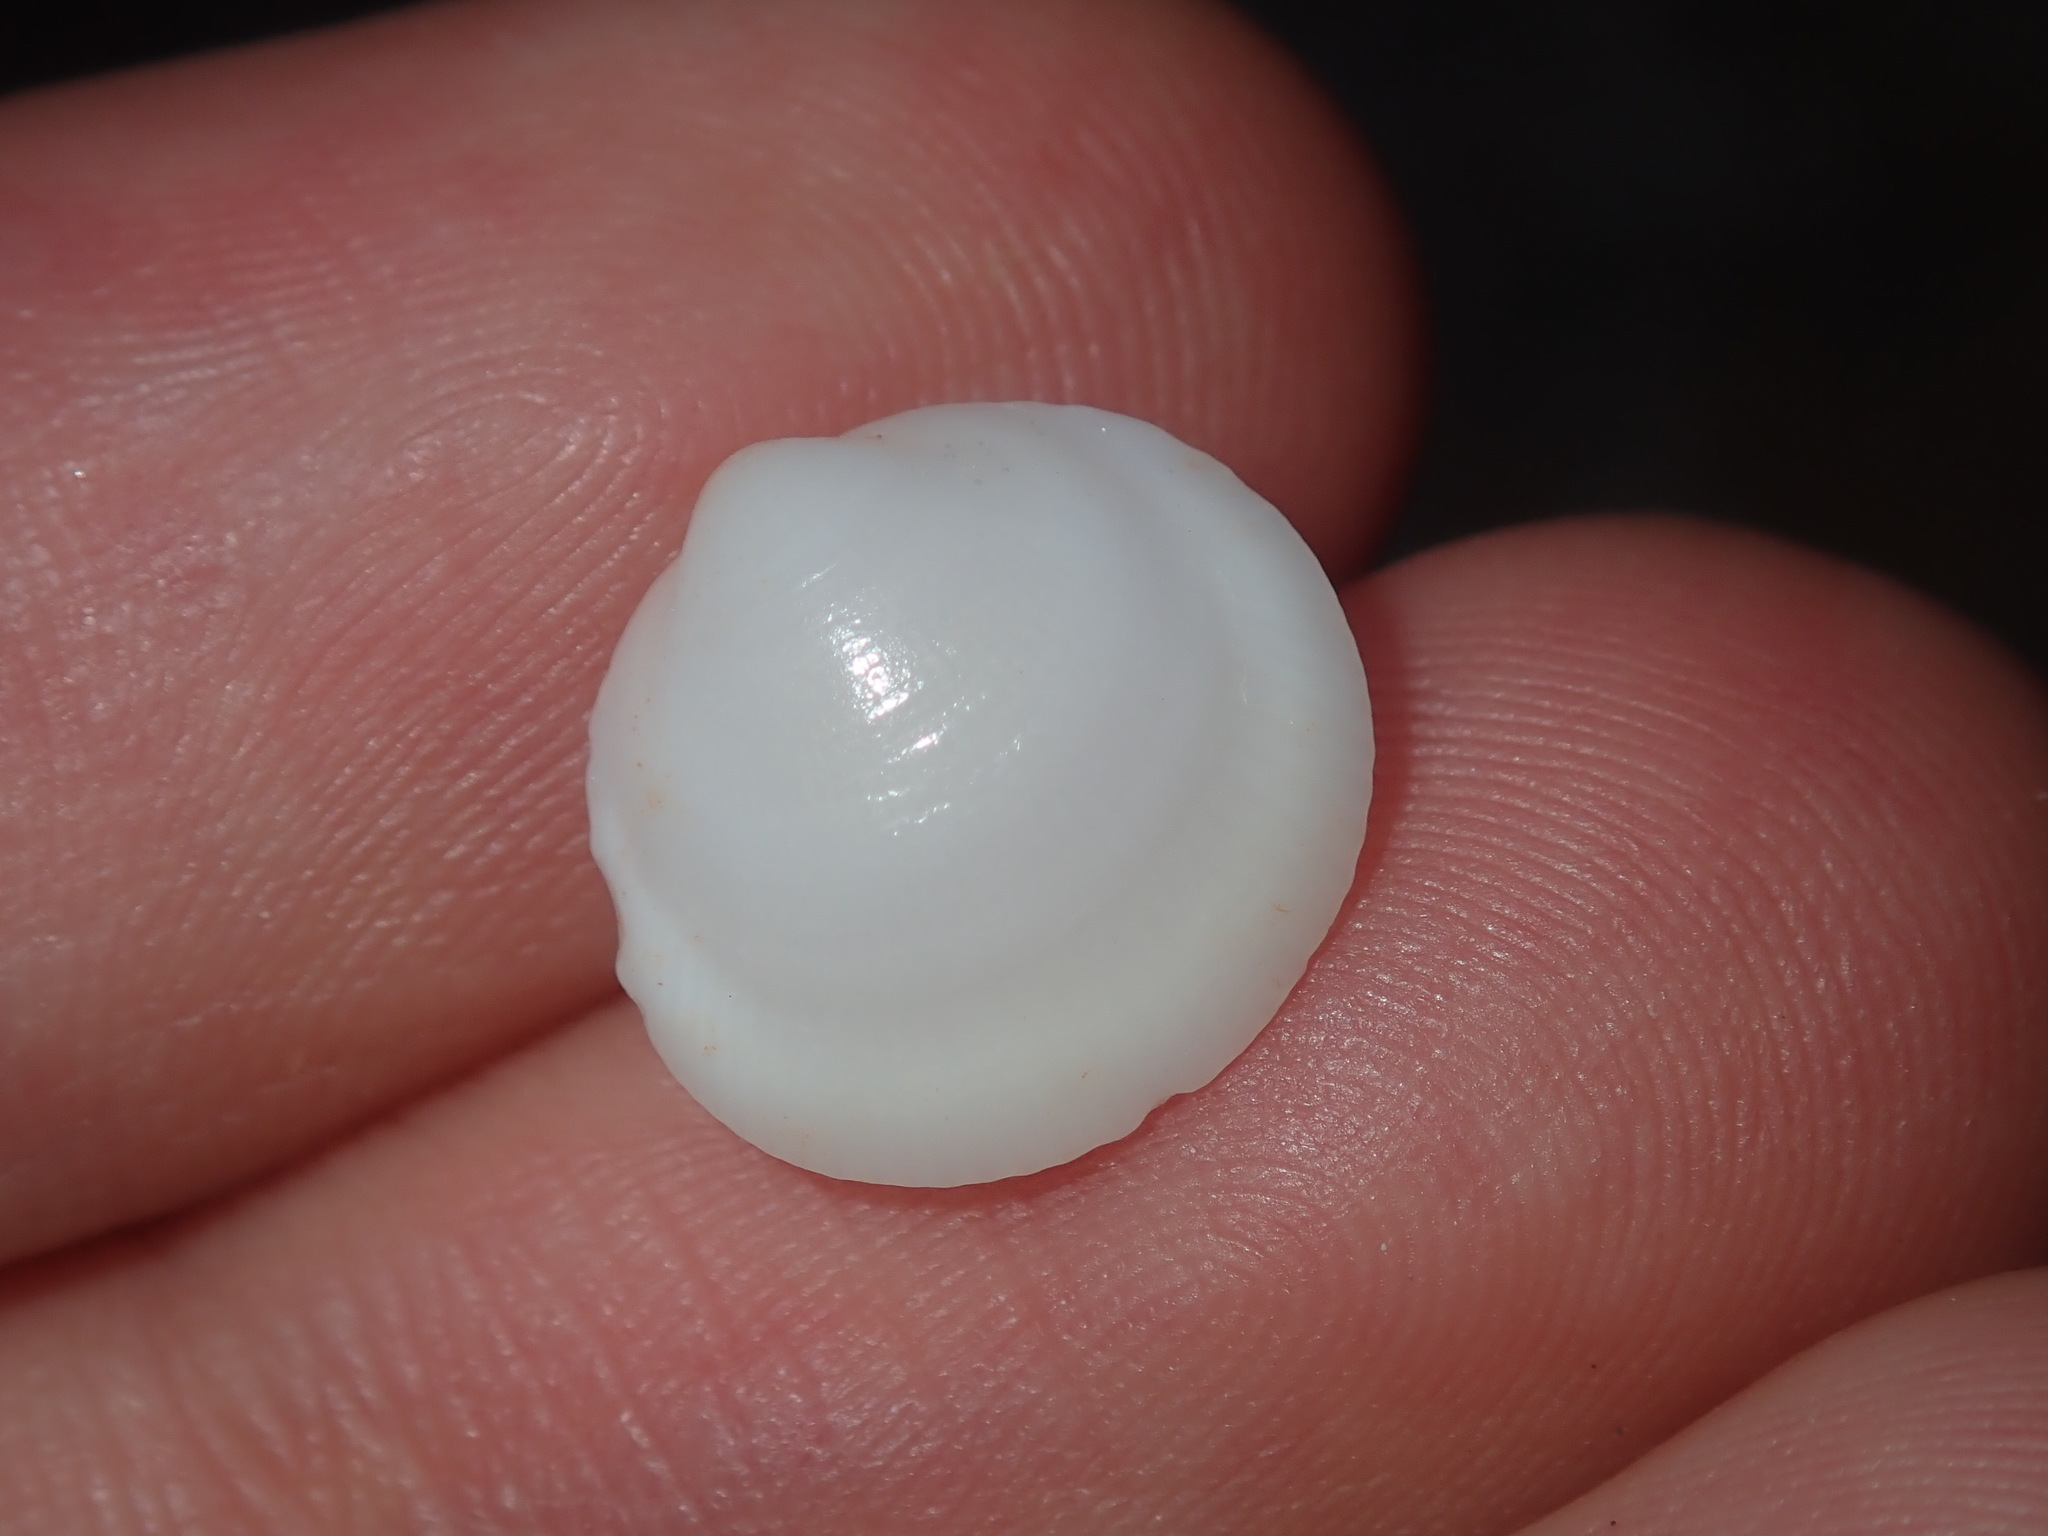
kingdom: Animalia
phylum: Mollusca
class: Bivalvia
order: Arcida
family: Glycymerididae
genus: Glycymeris
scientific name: Glycymeris holoserica
